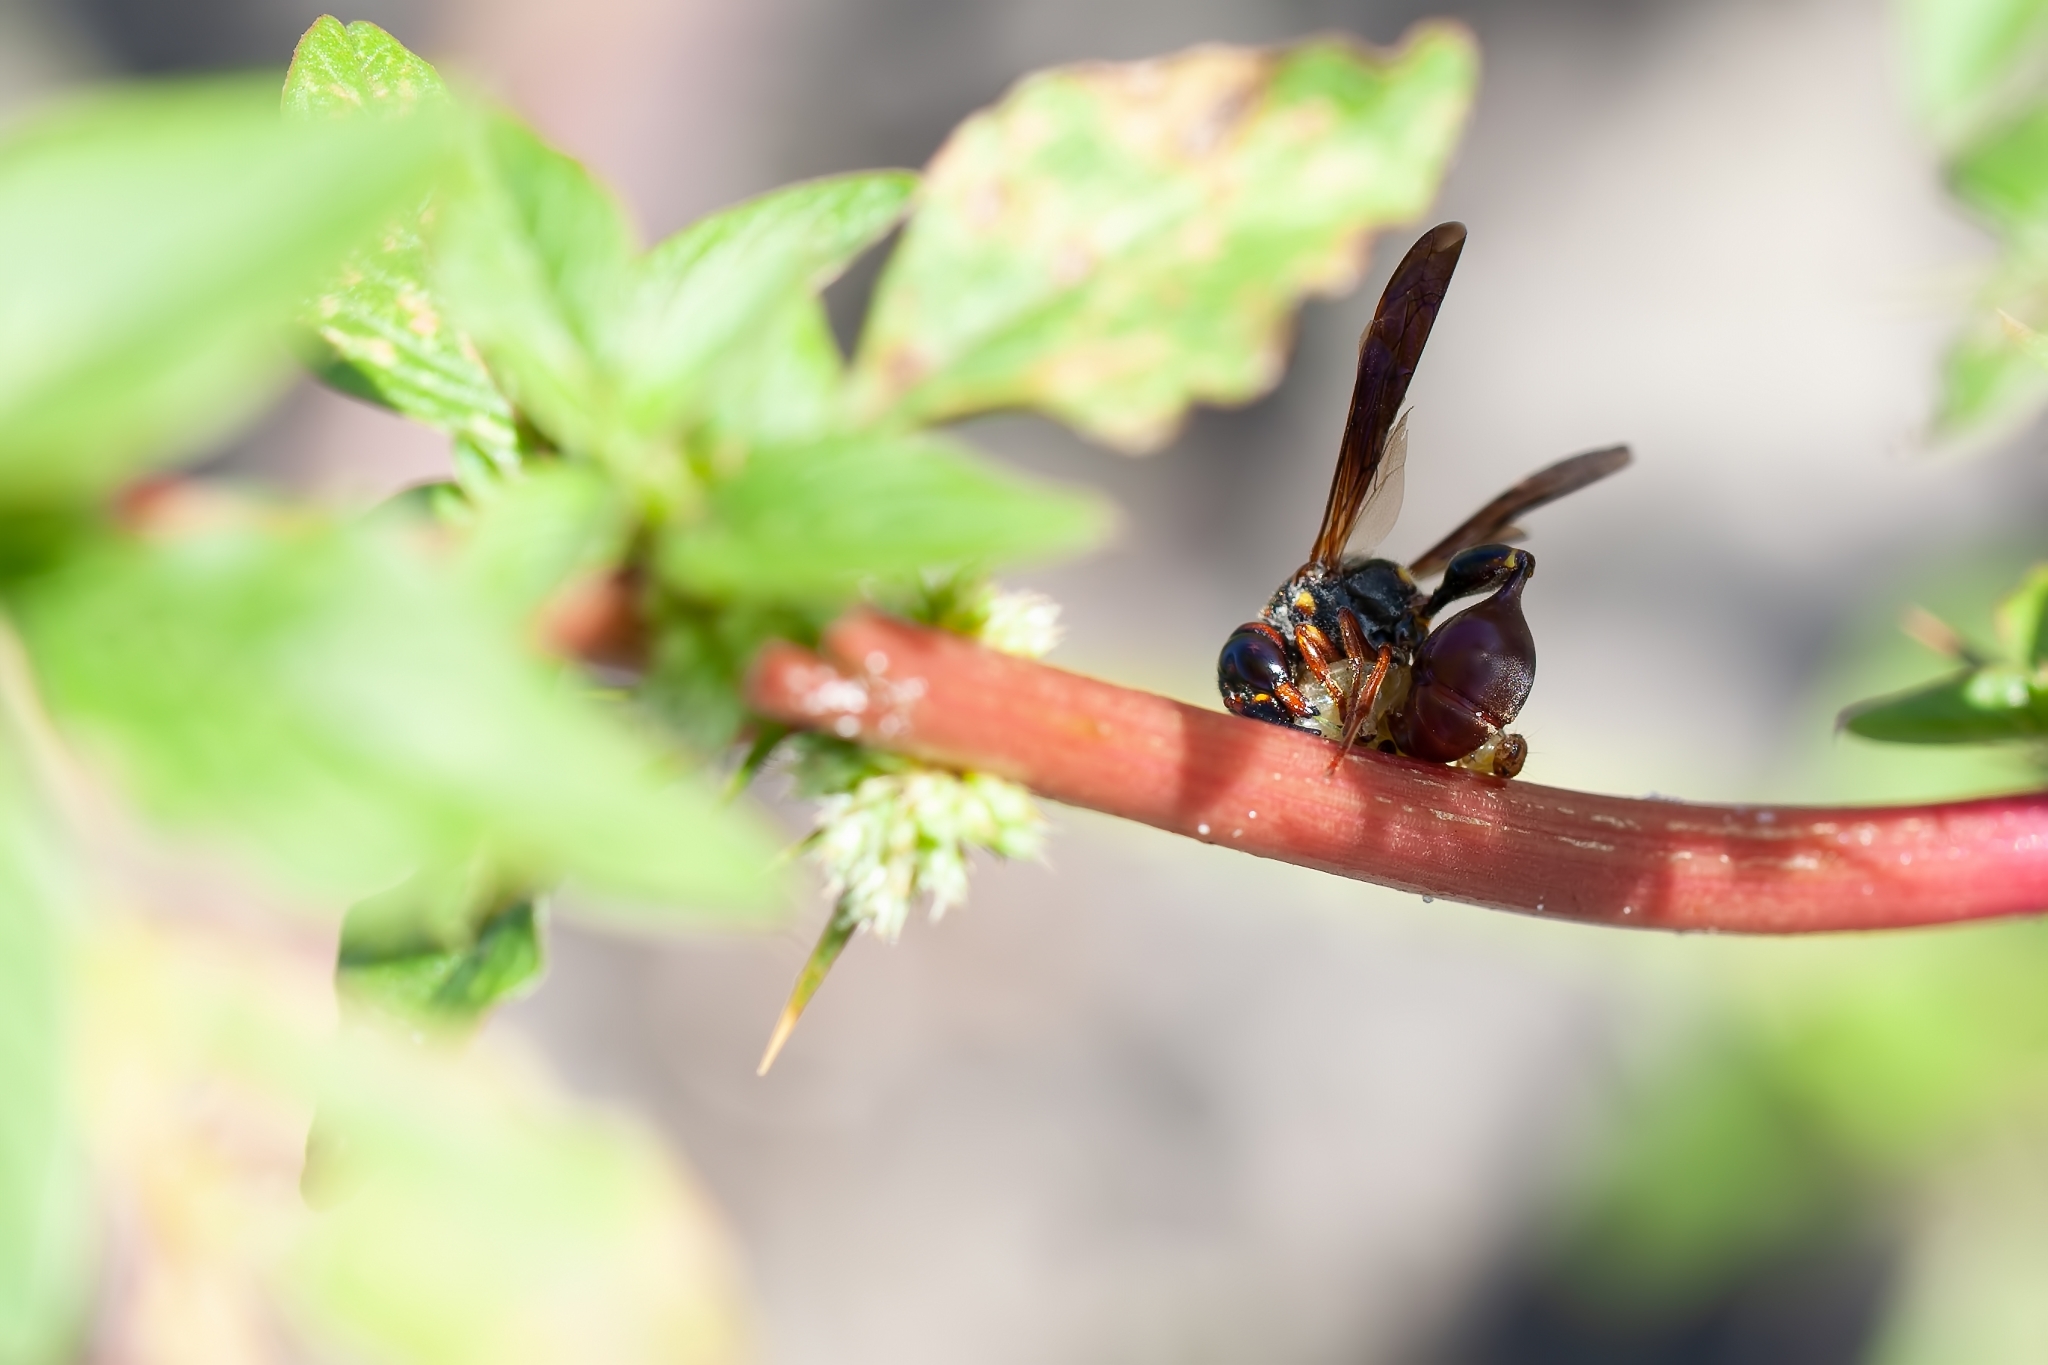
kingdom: Animalia
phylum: Arthropoda
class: Insecta
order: Hymenoptera
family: Eumenidae
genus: Zethus
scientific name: Zethus slossonae
